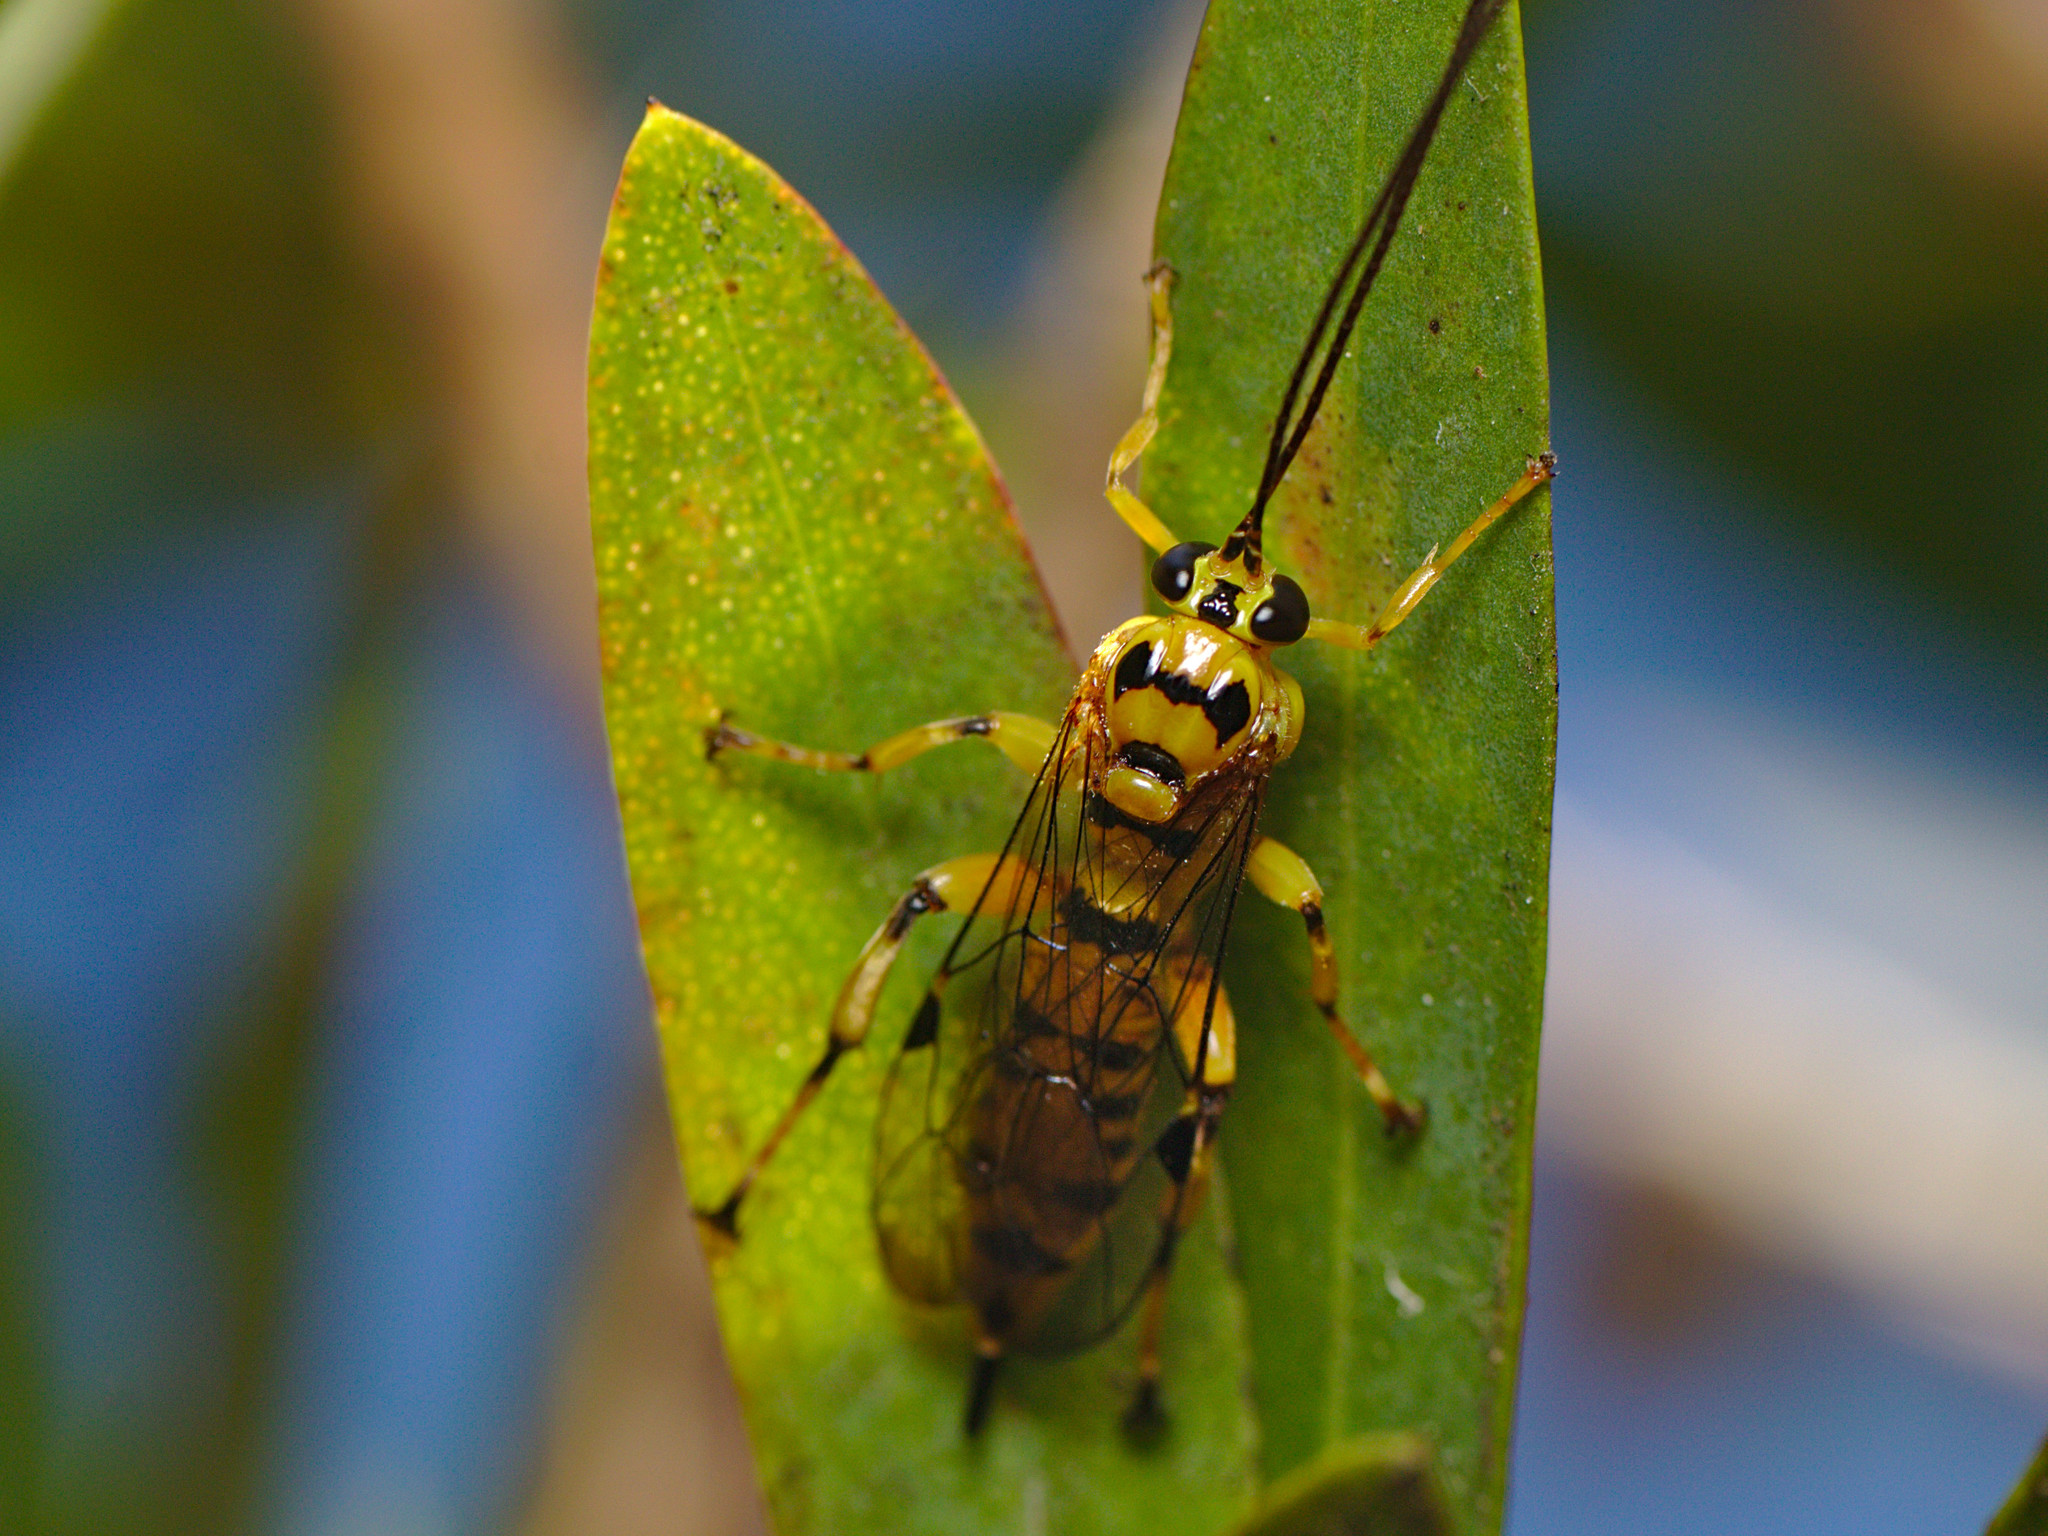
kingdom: Animalia
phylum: Arthropoda
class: Insecta
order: Hymenoptera
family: Ichneumonidae
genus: Xanthopimpla
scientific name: Xanthopimpla rhopaloceros
